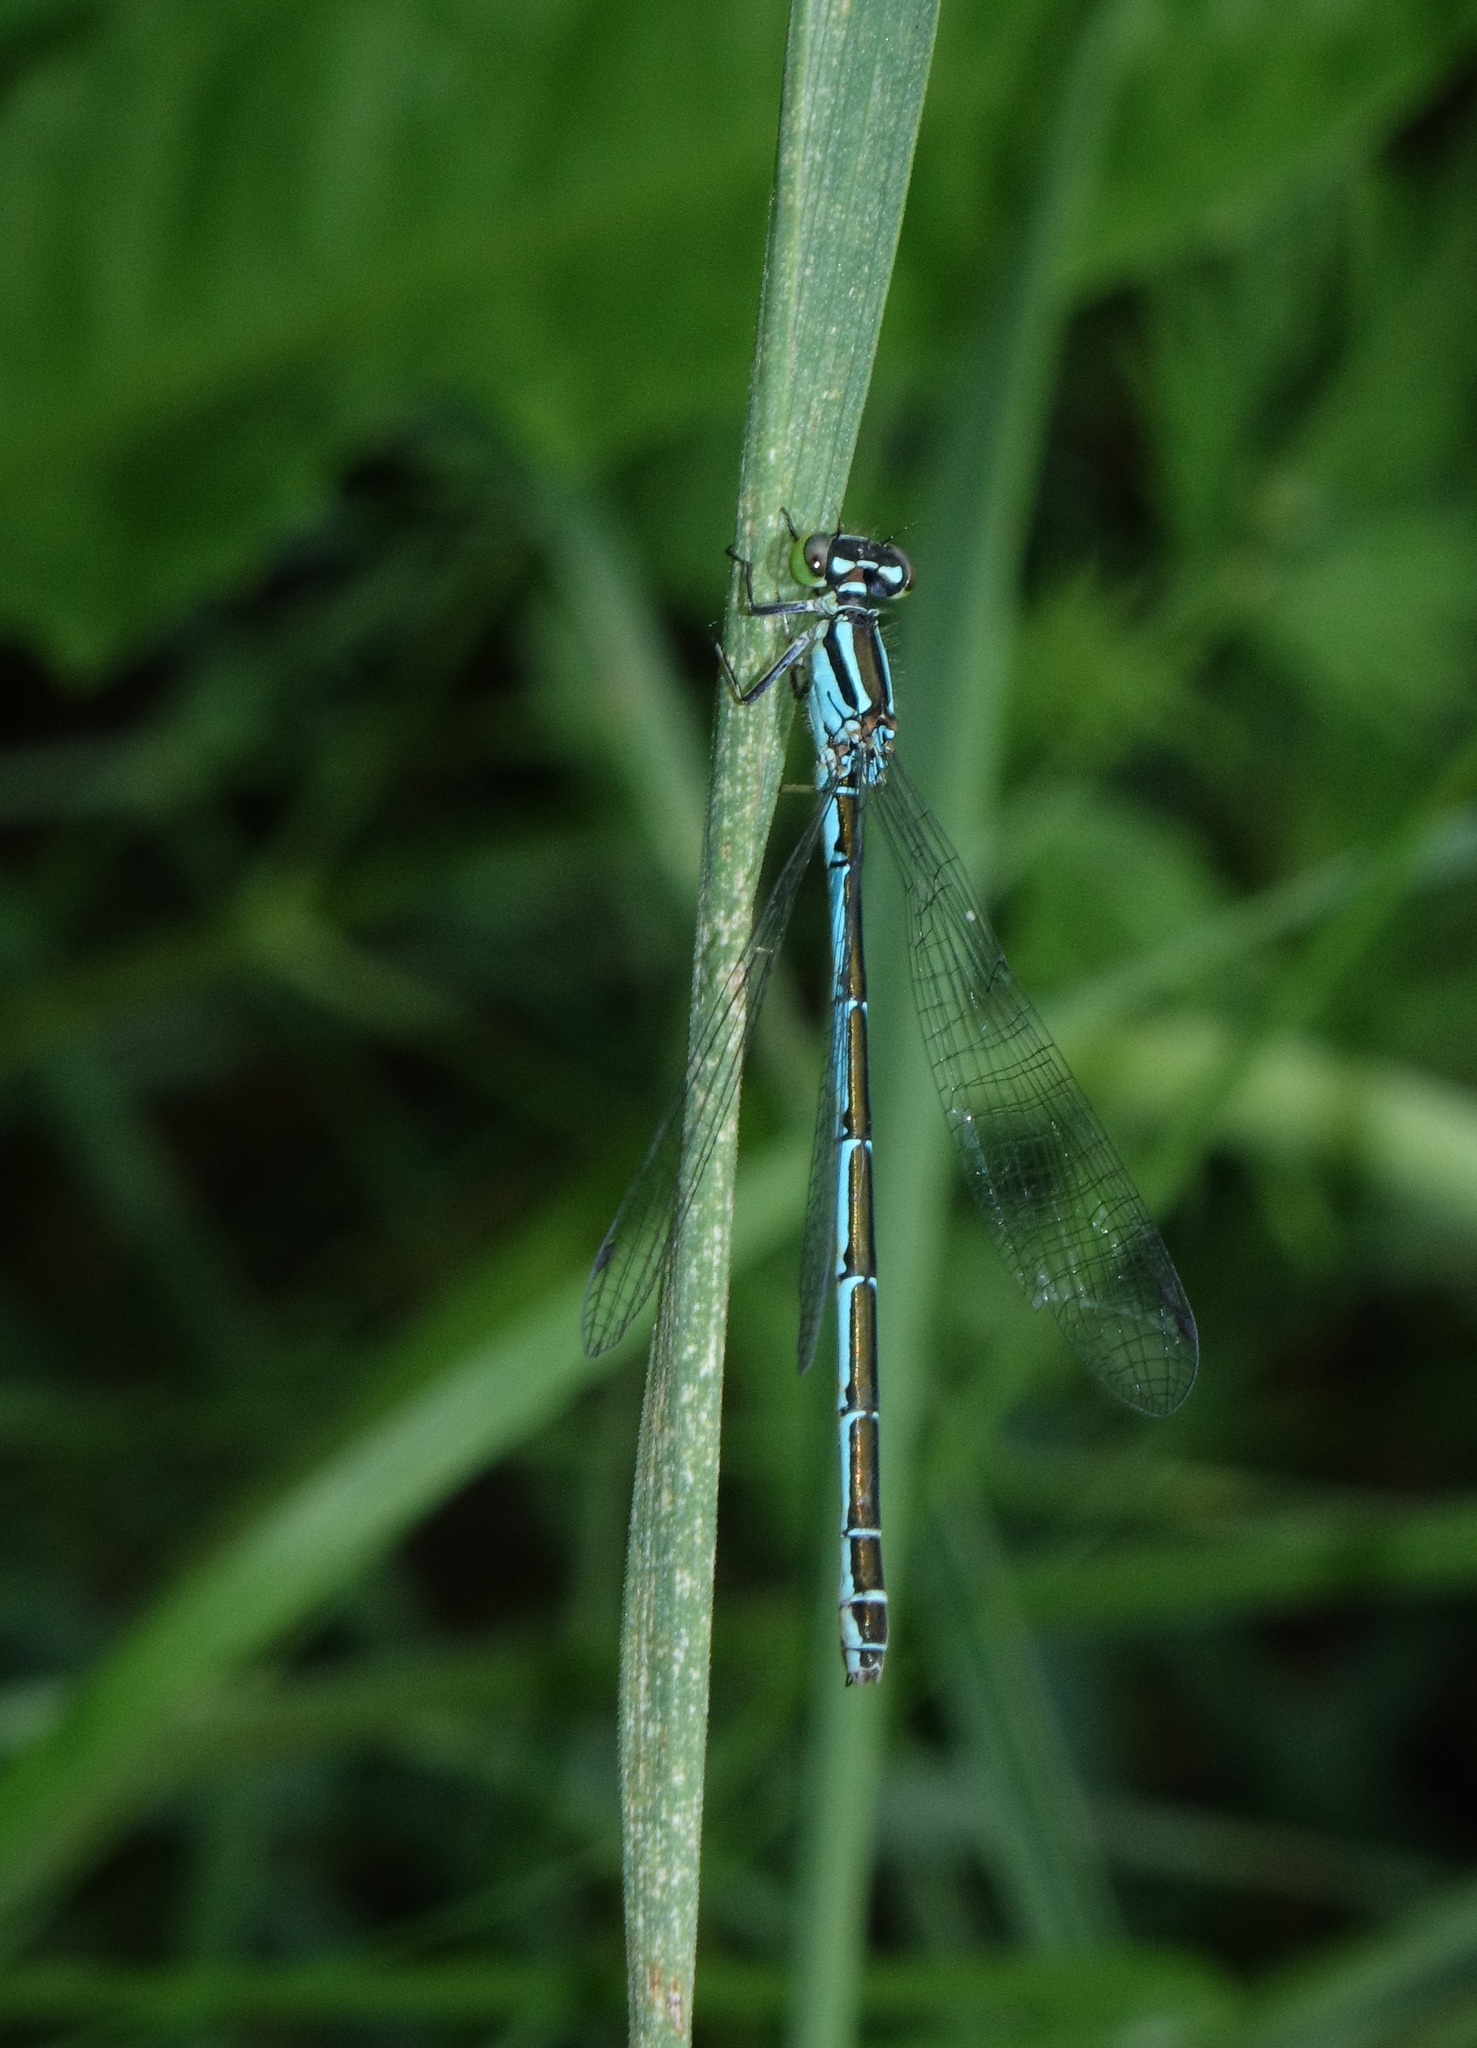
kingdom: Animalia
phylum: Arthropoda
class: Insecta
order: Odonata
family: Coenagrionidae
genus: Coenagrion
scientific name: Coenagrion hastulatum
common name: Spearhead bluet
